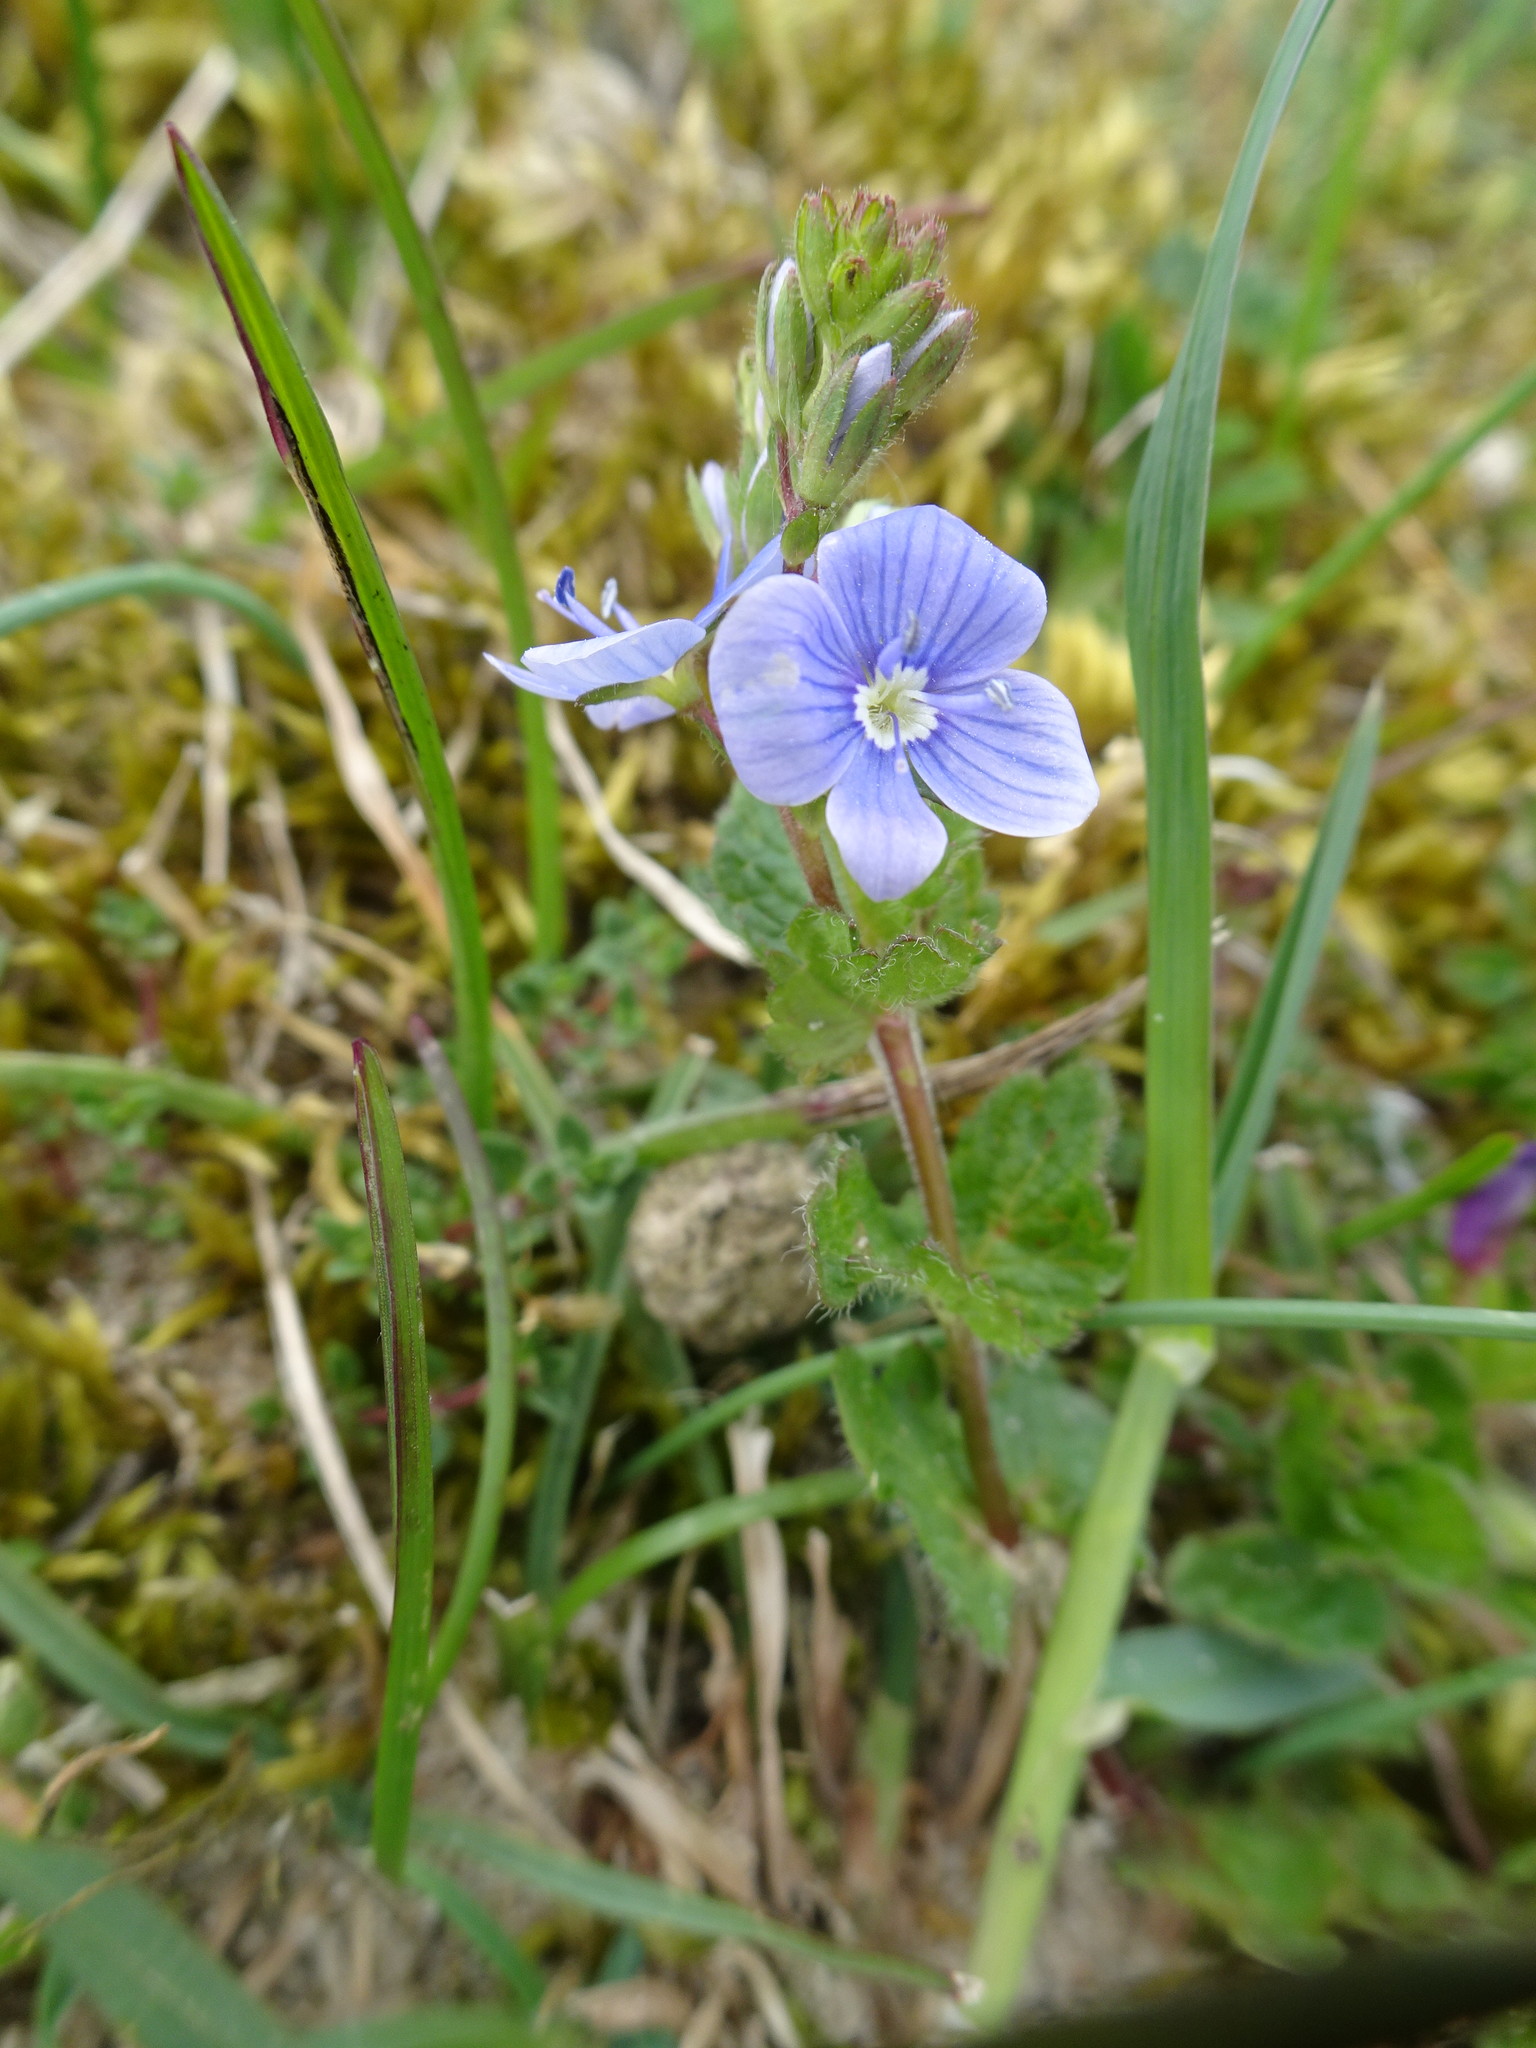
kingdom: Plantae
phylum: Tracheophyta
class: Magnoliopsida
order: Lamiales
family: Plantaginaceae
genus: Veronica
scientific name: Veronica chamaedrys
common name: Germander speedwell
